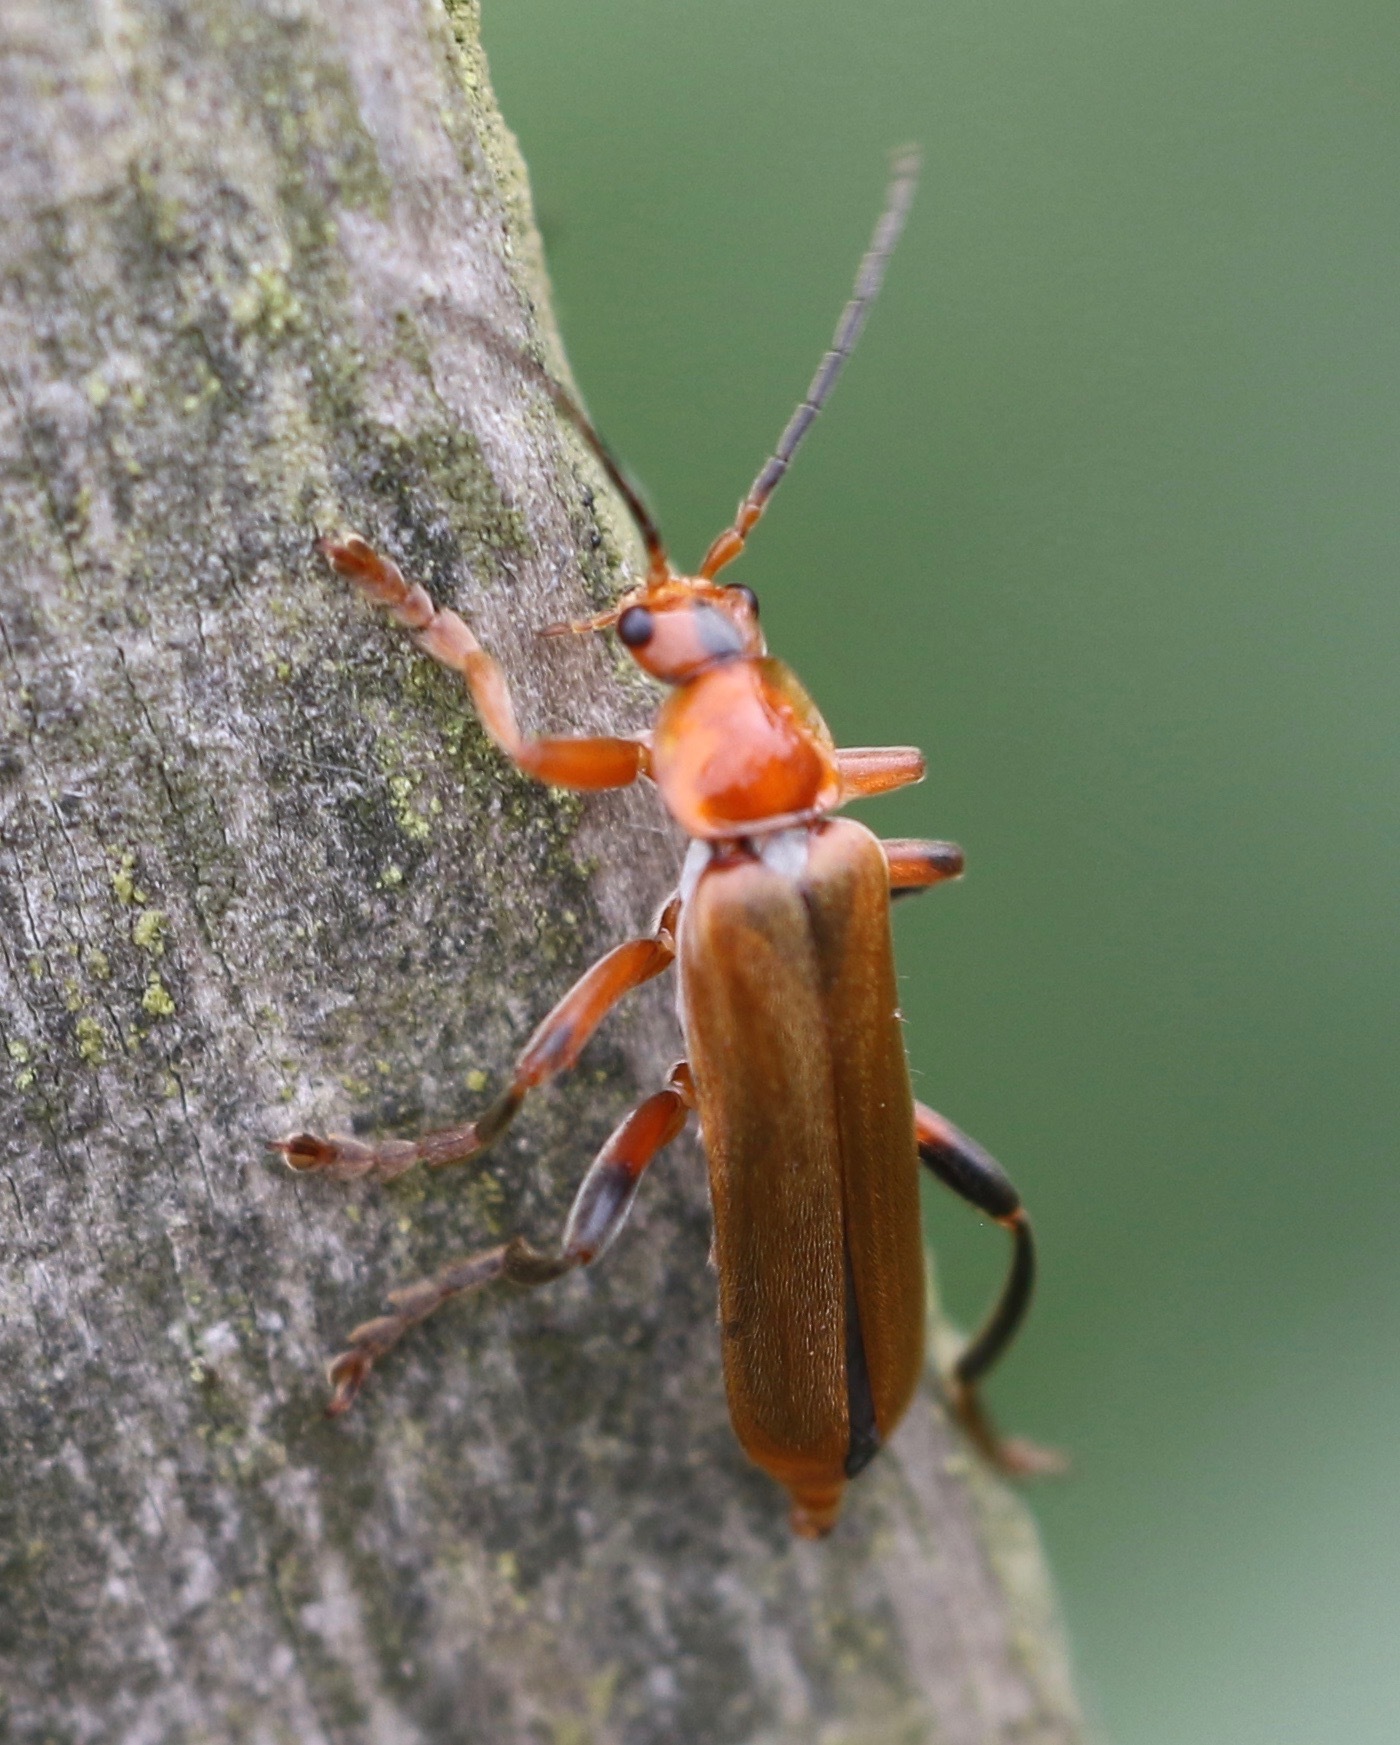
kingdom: Animalia
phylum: Arthropoda
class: Insecta
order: Coleoptera
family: Cantharidae
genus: Cantharis
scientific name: Cantharis livida
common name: Livid soldier beetle
